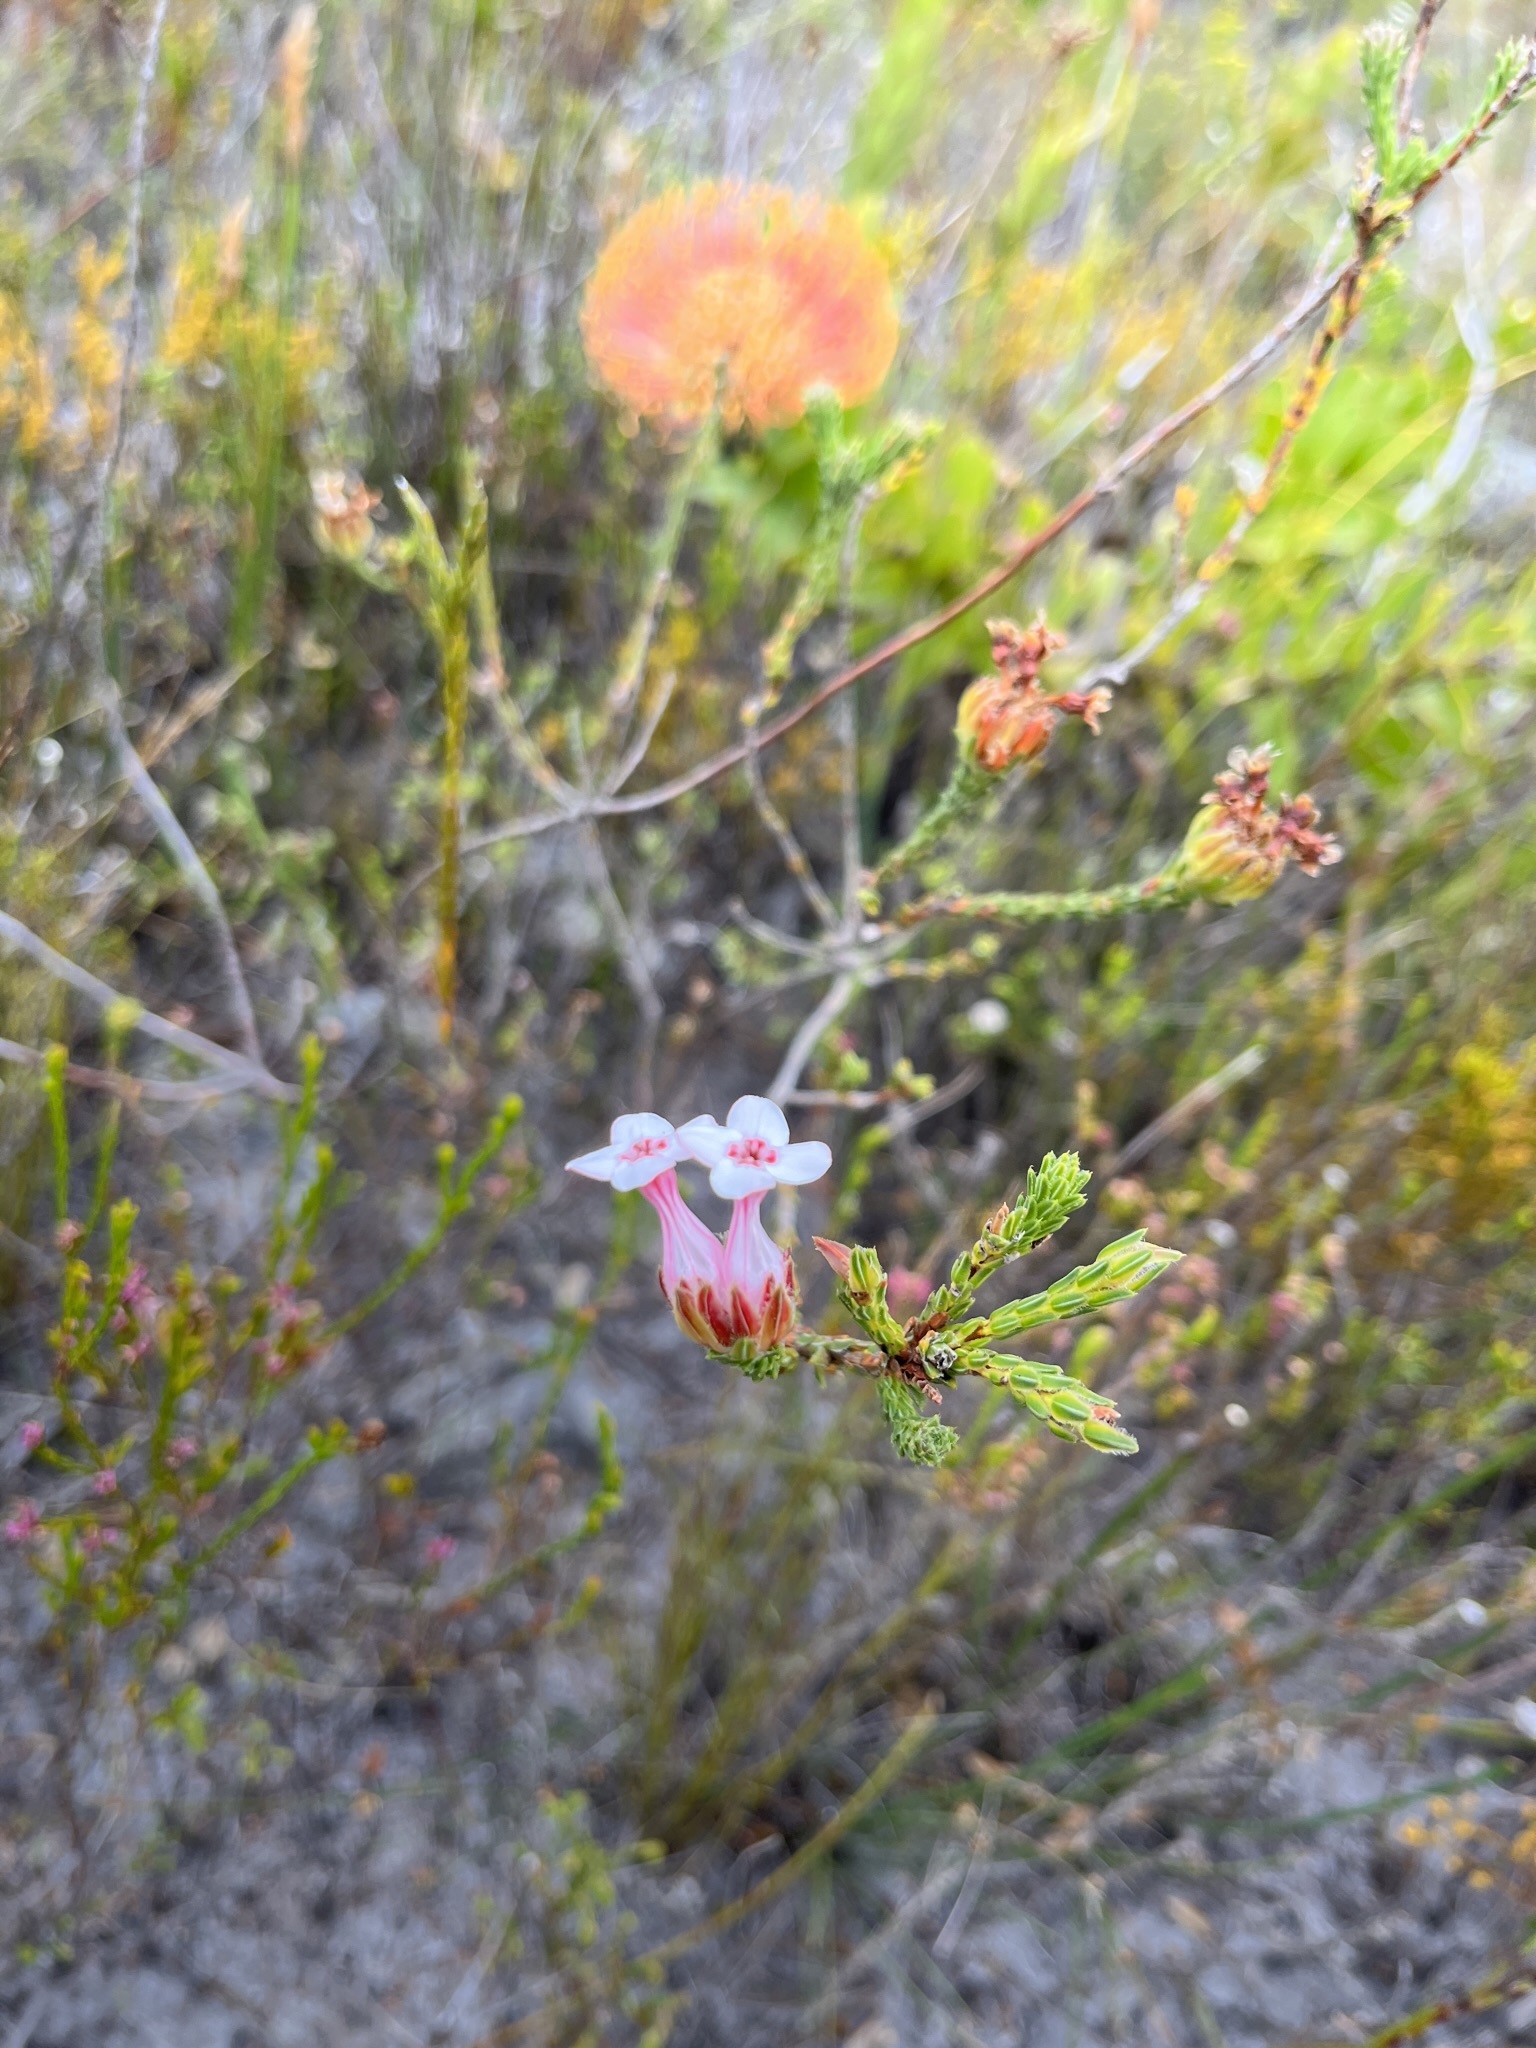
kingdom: Plantae
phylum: Tracheophyta
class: Magnoliopsida
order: Ericales
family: Ericaceae
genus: Erica
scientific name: Erica ampullacea
